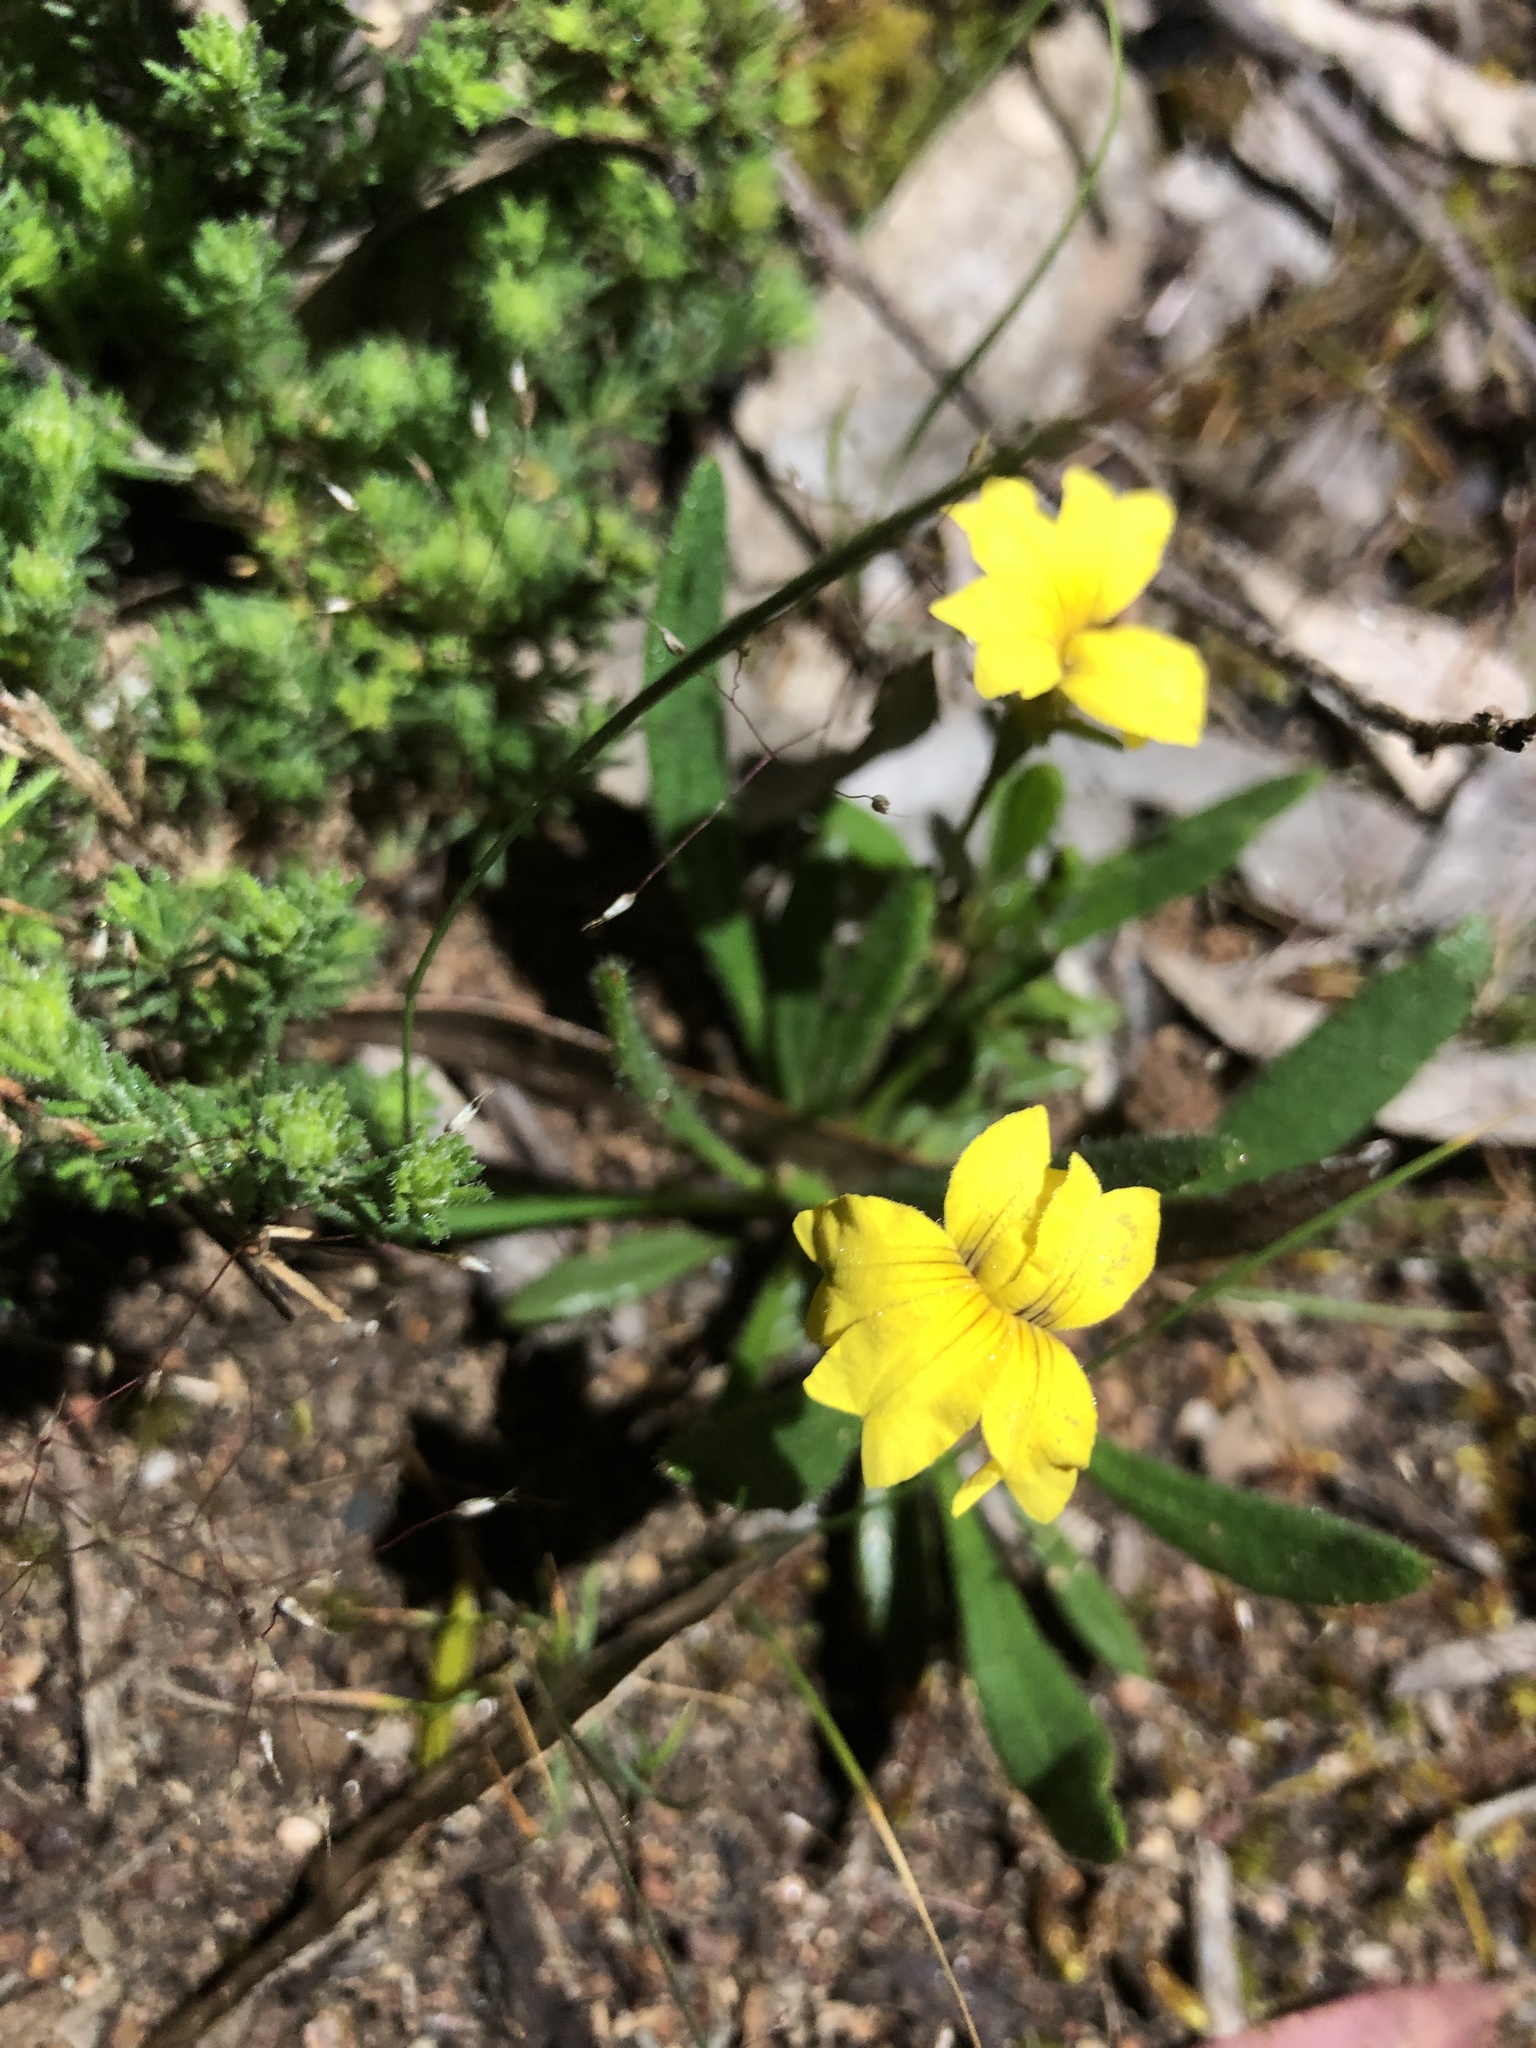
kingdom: Plantae
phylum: Tracheophyta
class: Magnoliopsida
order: Asterales
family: Goodeniaceae
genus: Goodenia
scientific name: Goodenia geniculata
